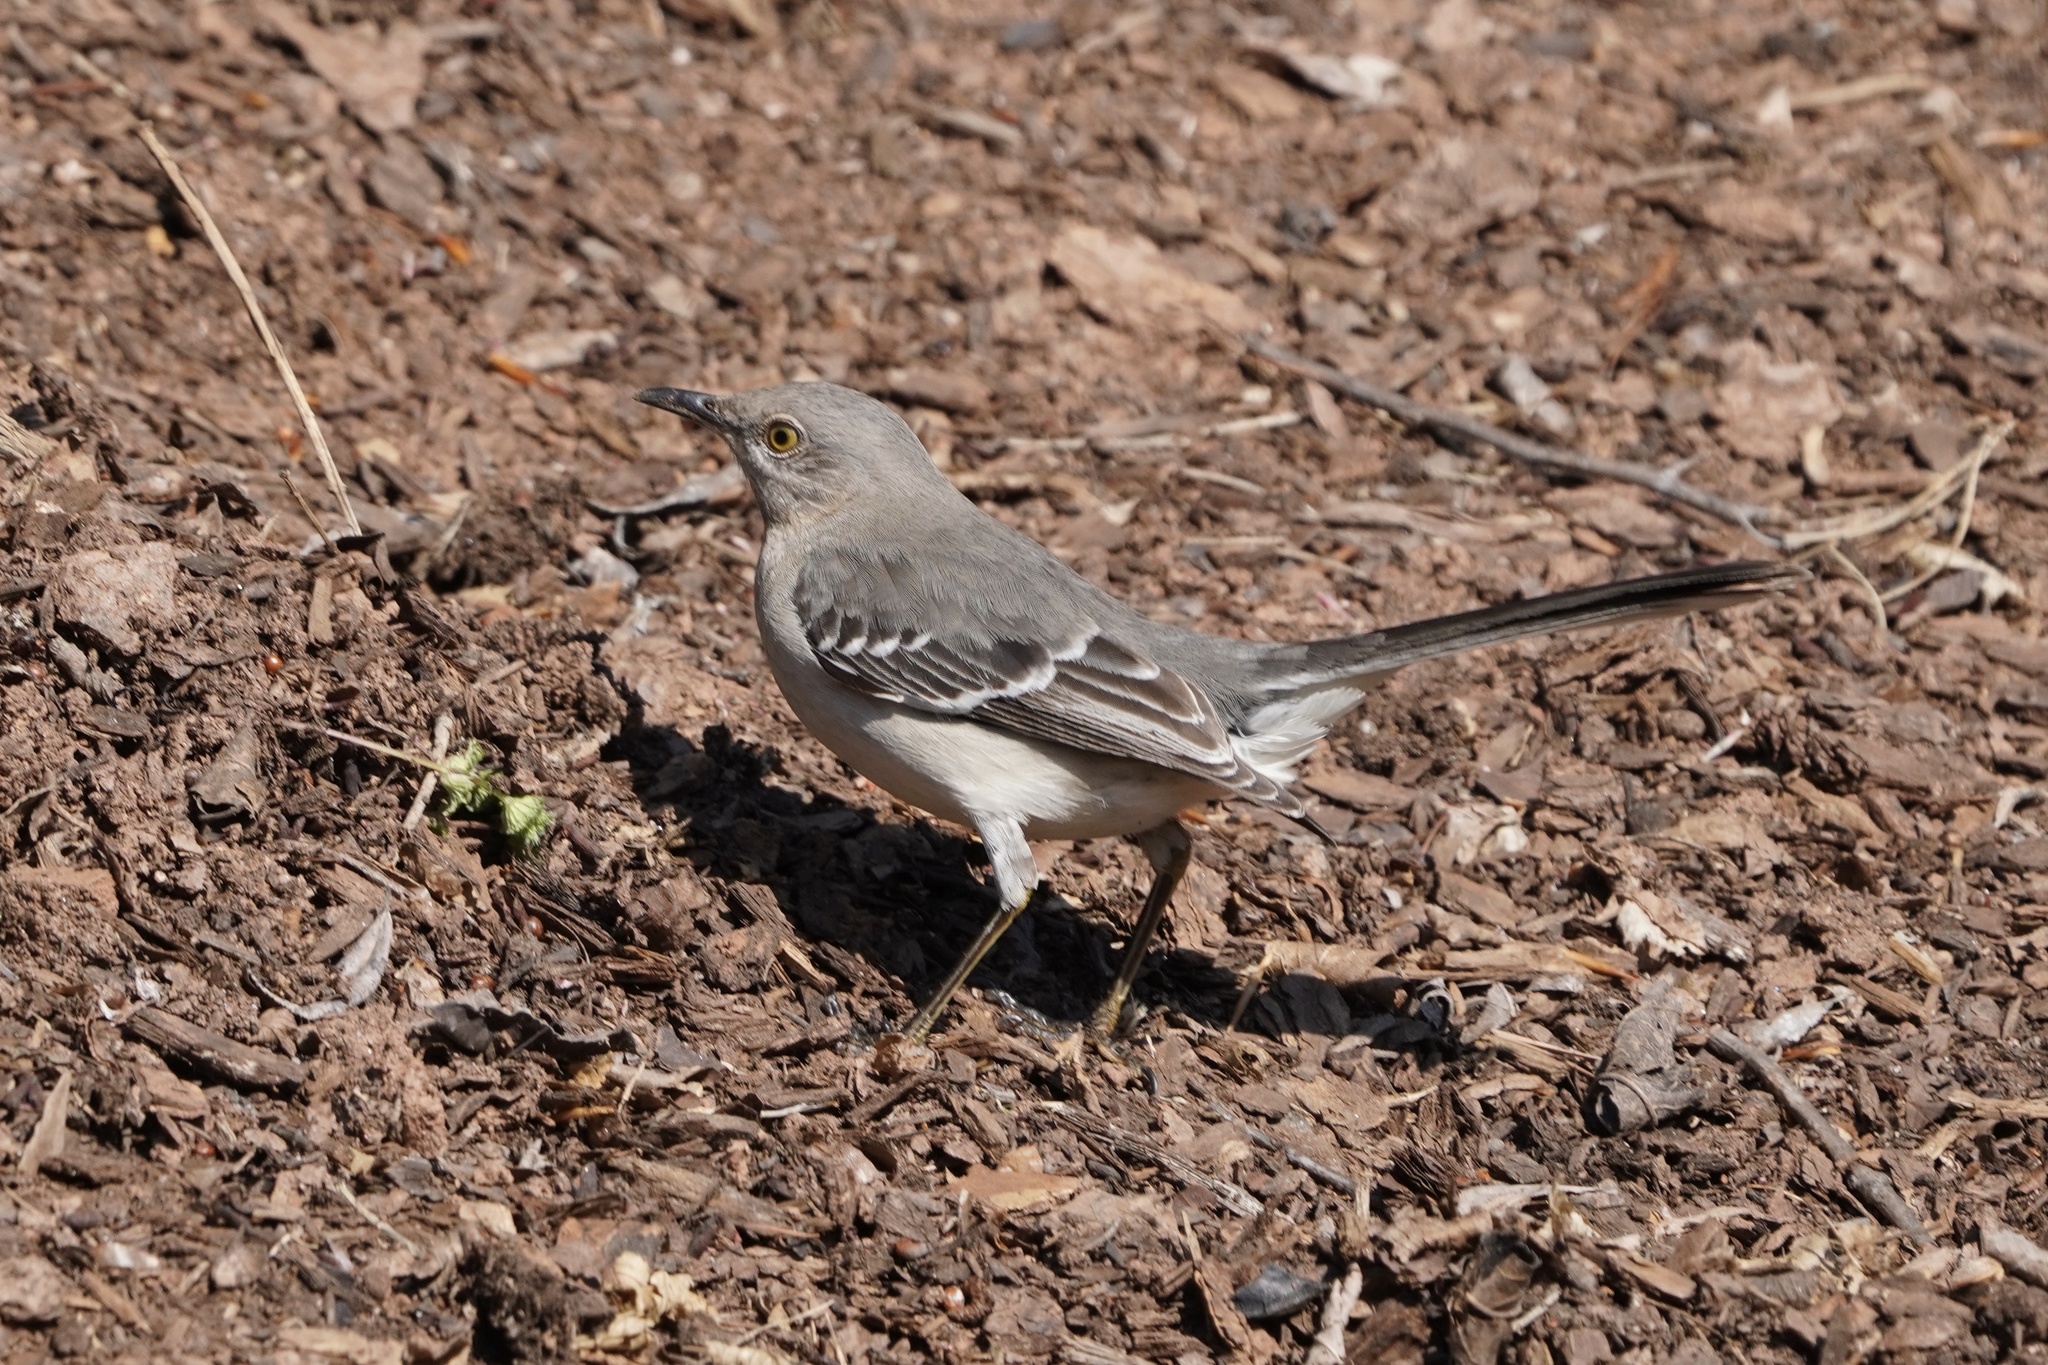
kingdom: Animalia
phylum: Chordata
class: Aves
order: Passeriformes
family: Mimidae
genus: Mimus
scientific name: Mimus polyglottos
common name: Northern mockingbird
